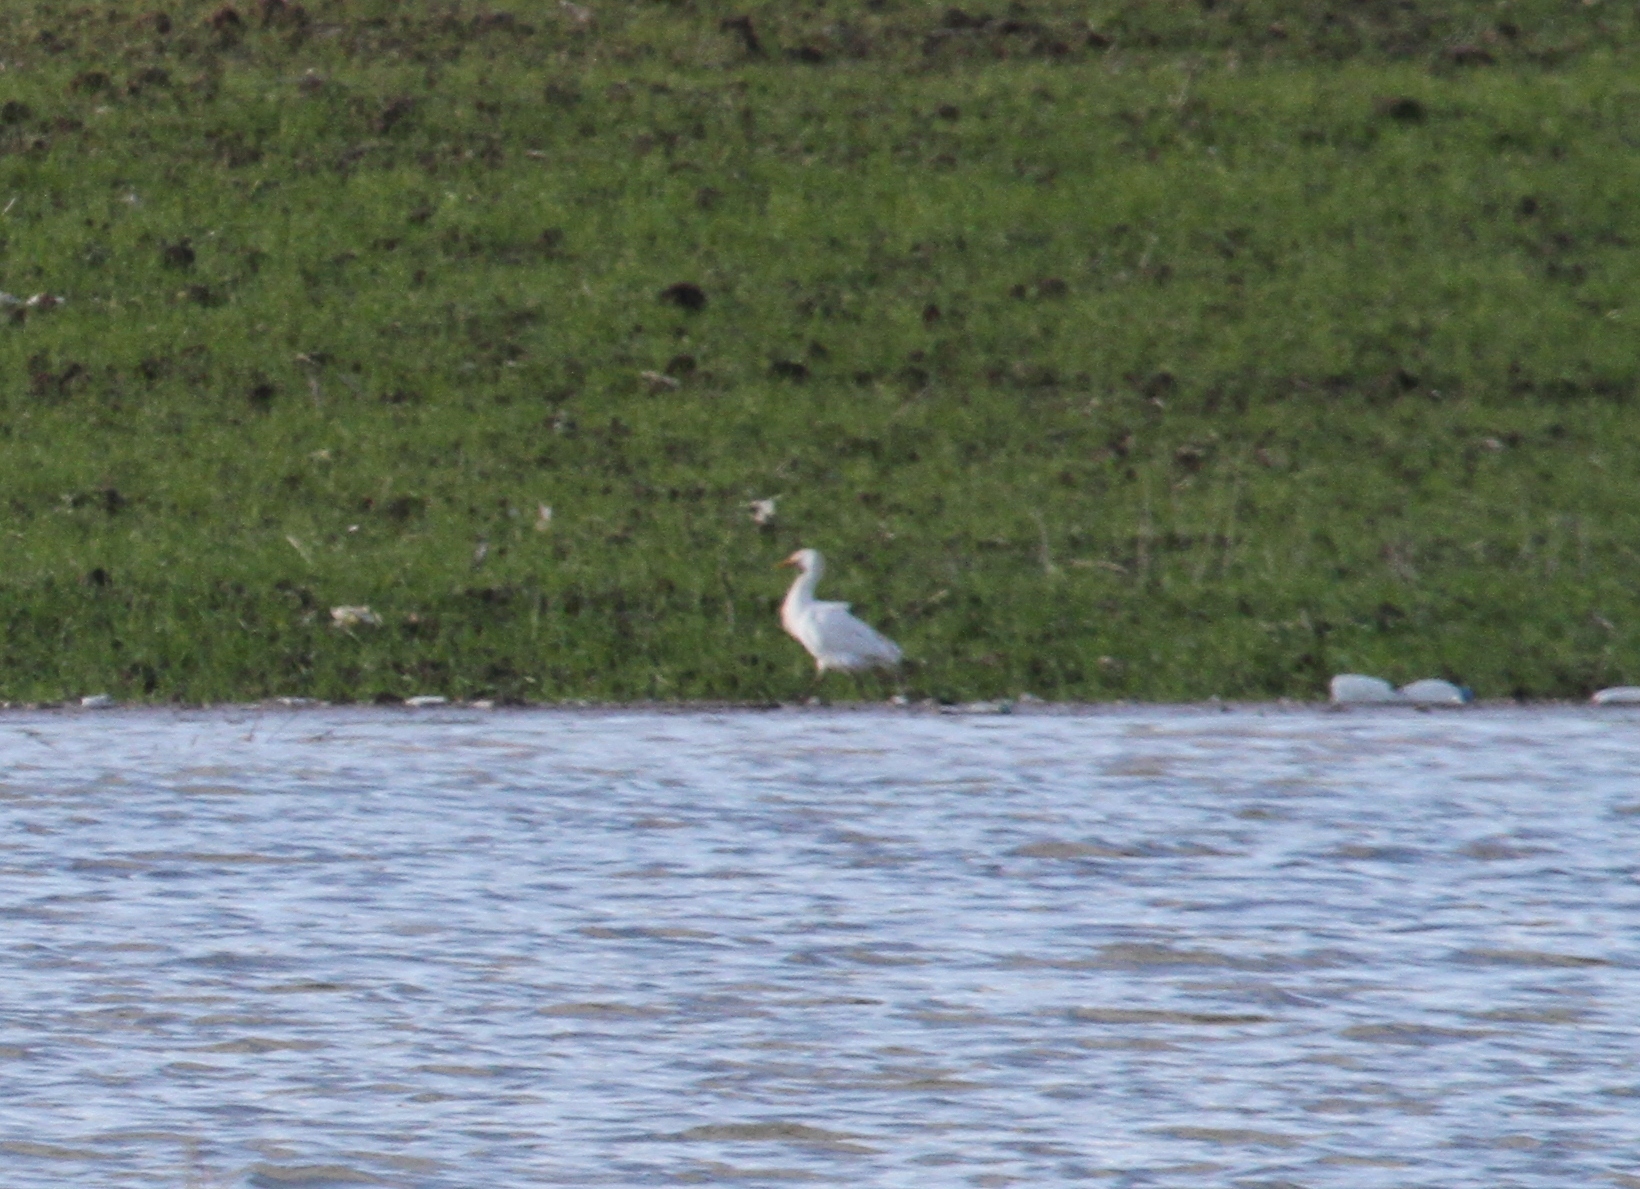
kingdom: Animalia
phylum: Chordata
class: Aves
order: Pelecaniformes
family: Ardeidae
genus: Bubulcus
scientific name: Bubulcus ibis
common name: Cattle egret
